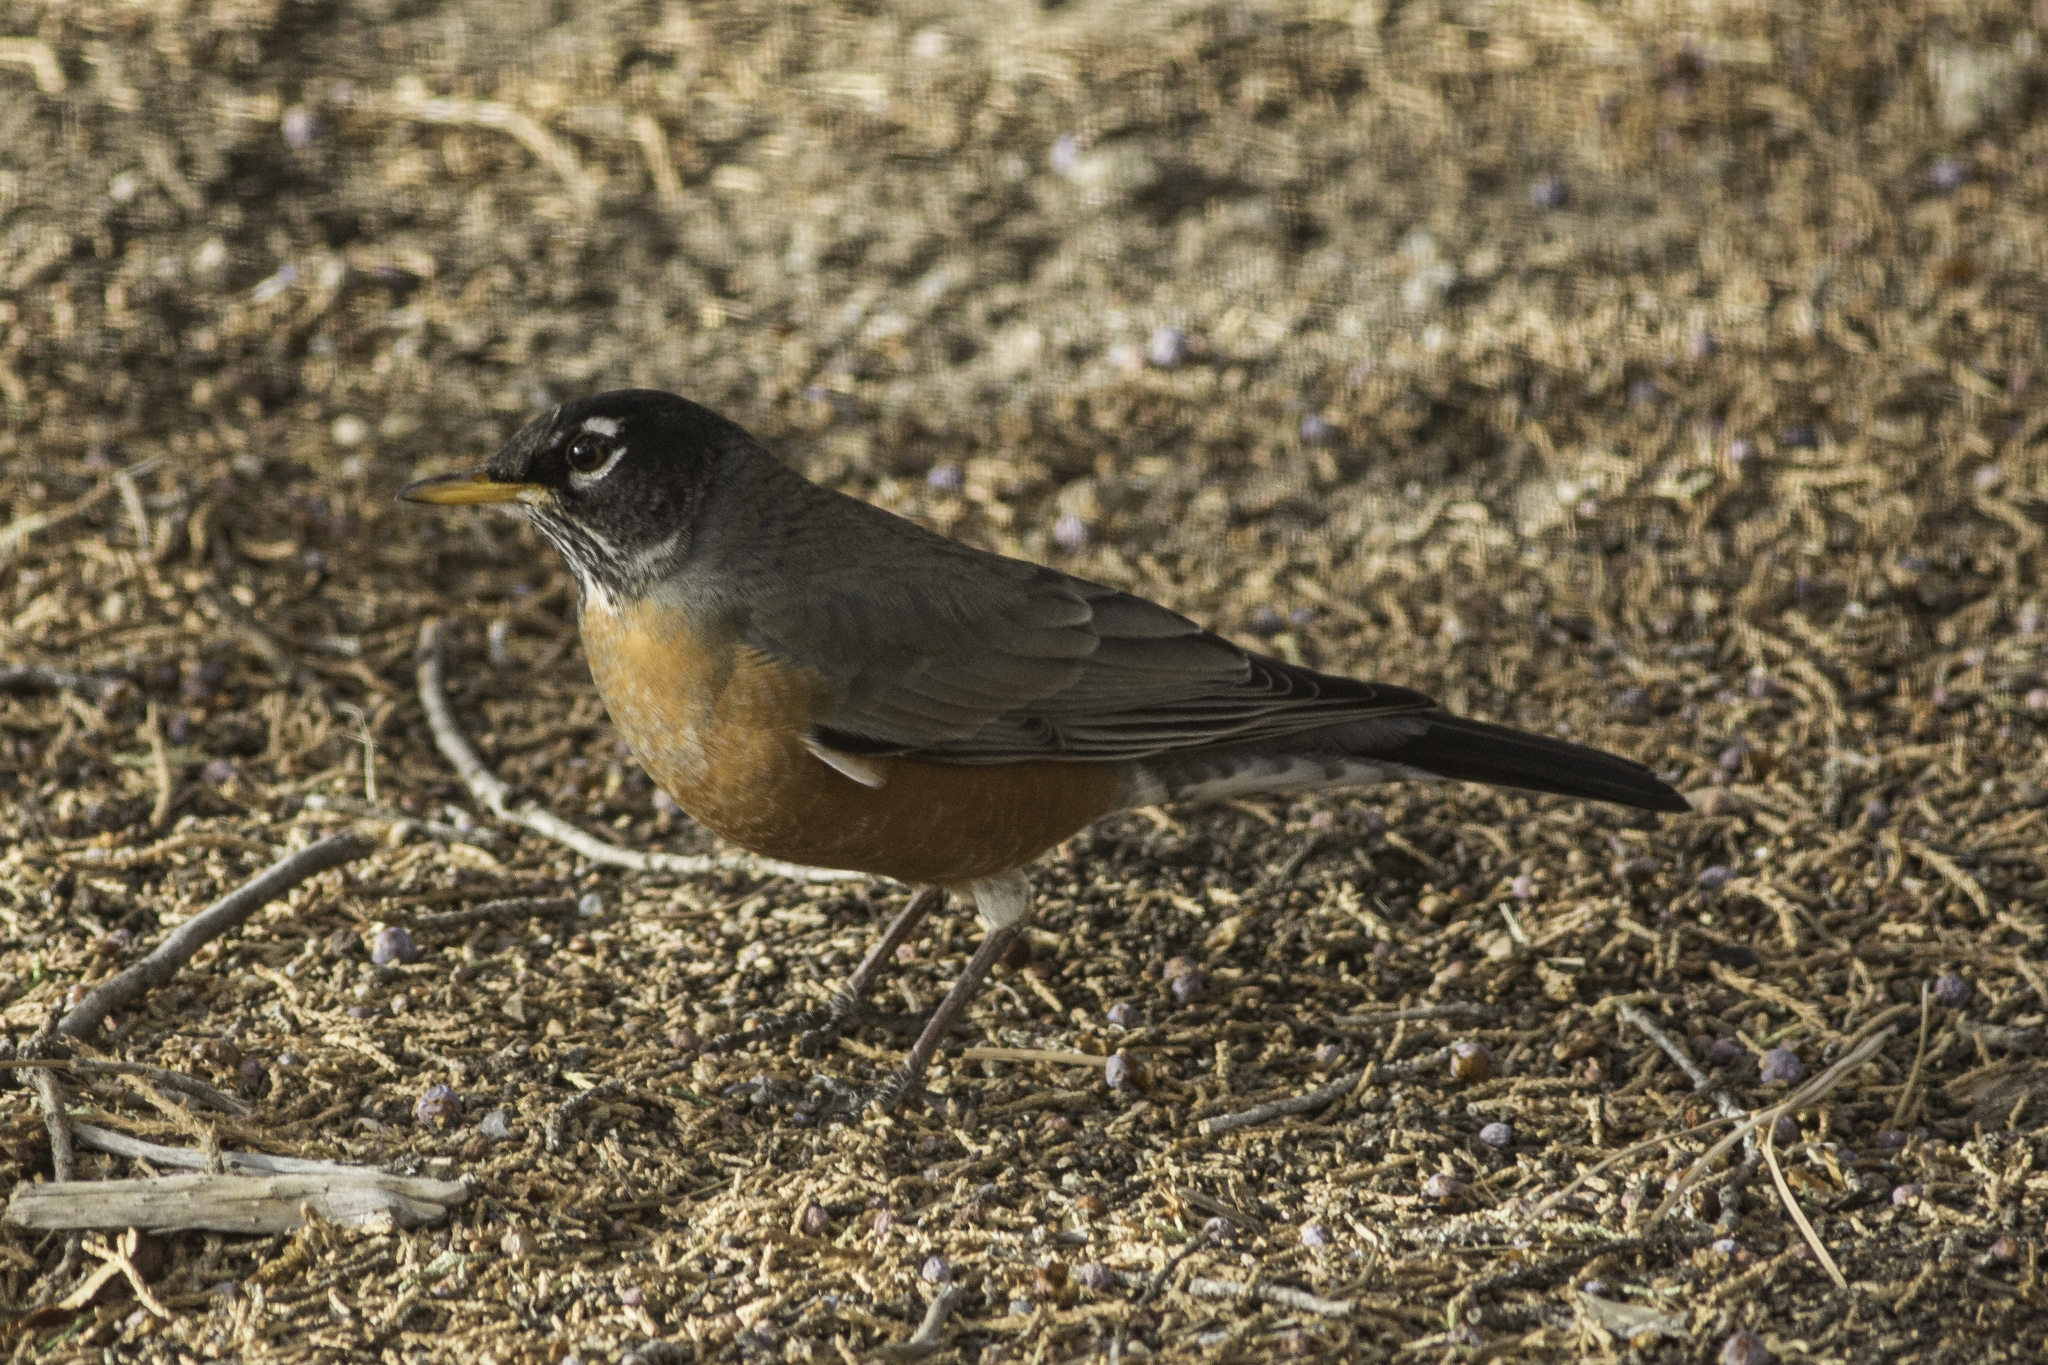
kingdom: Animalia
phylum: Chordata
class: Aves
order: Passeriformes
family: Turdidae
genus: Turdus
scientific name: Turdus migratorius
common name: American robin
